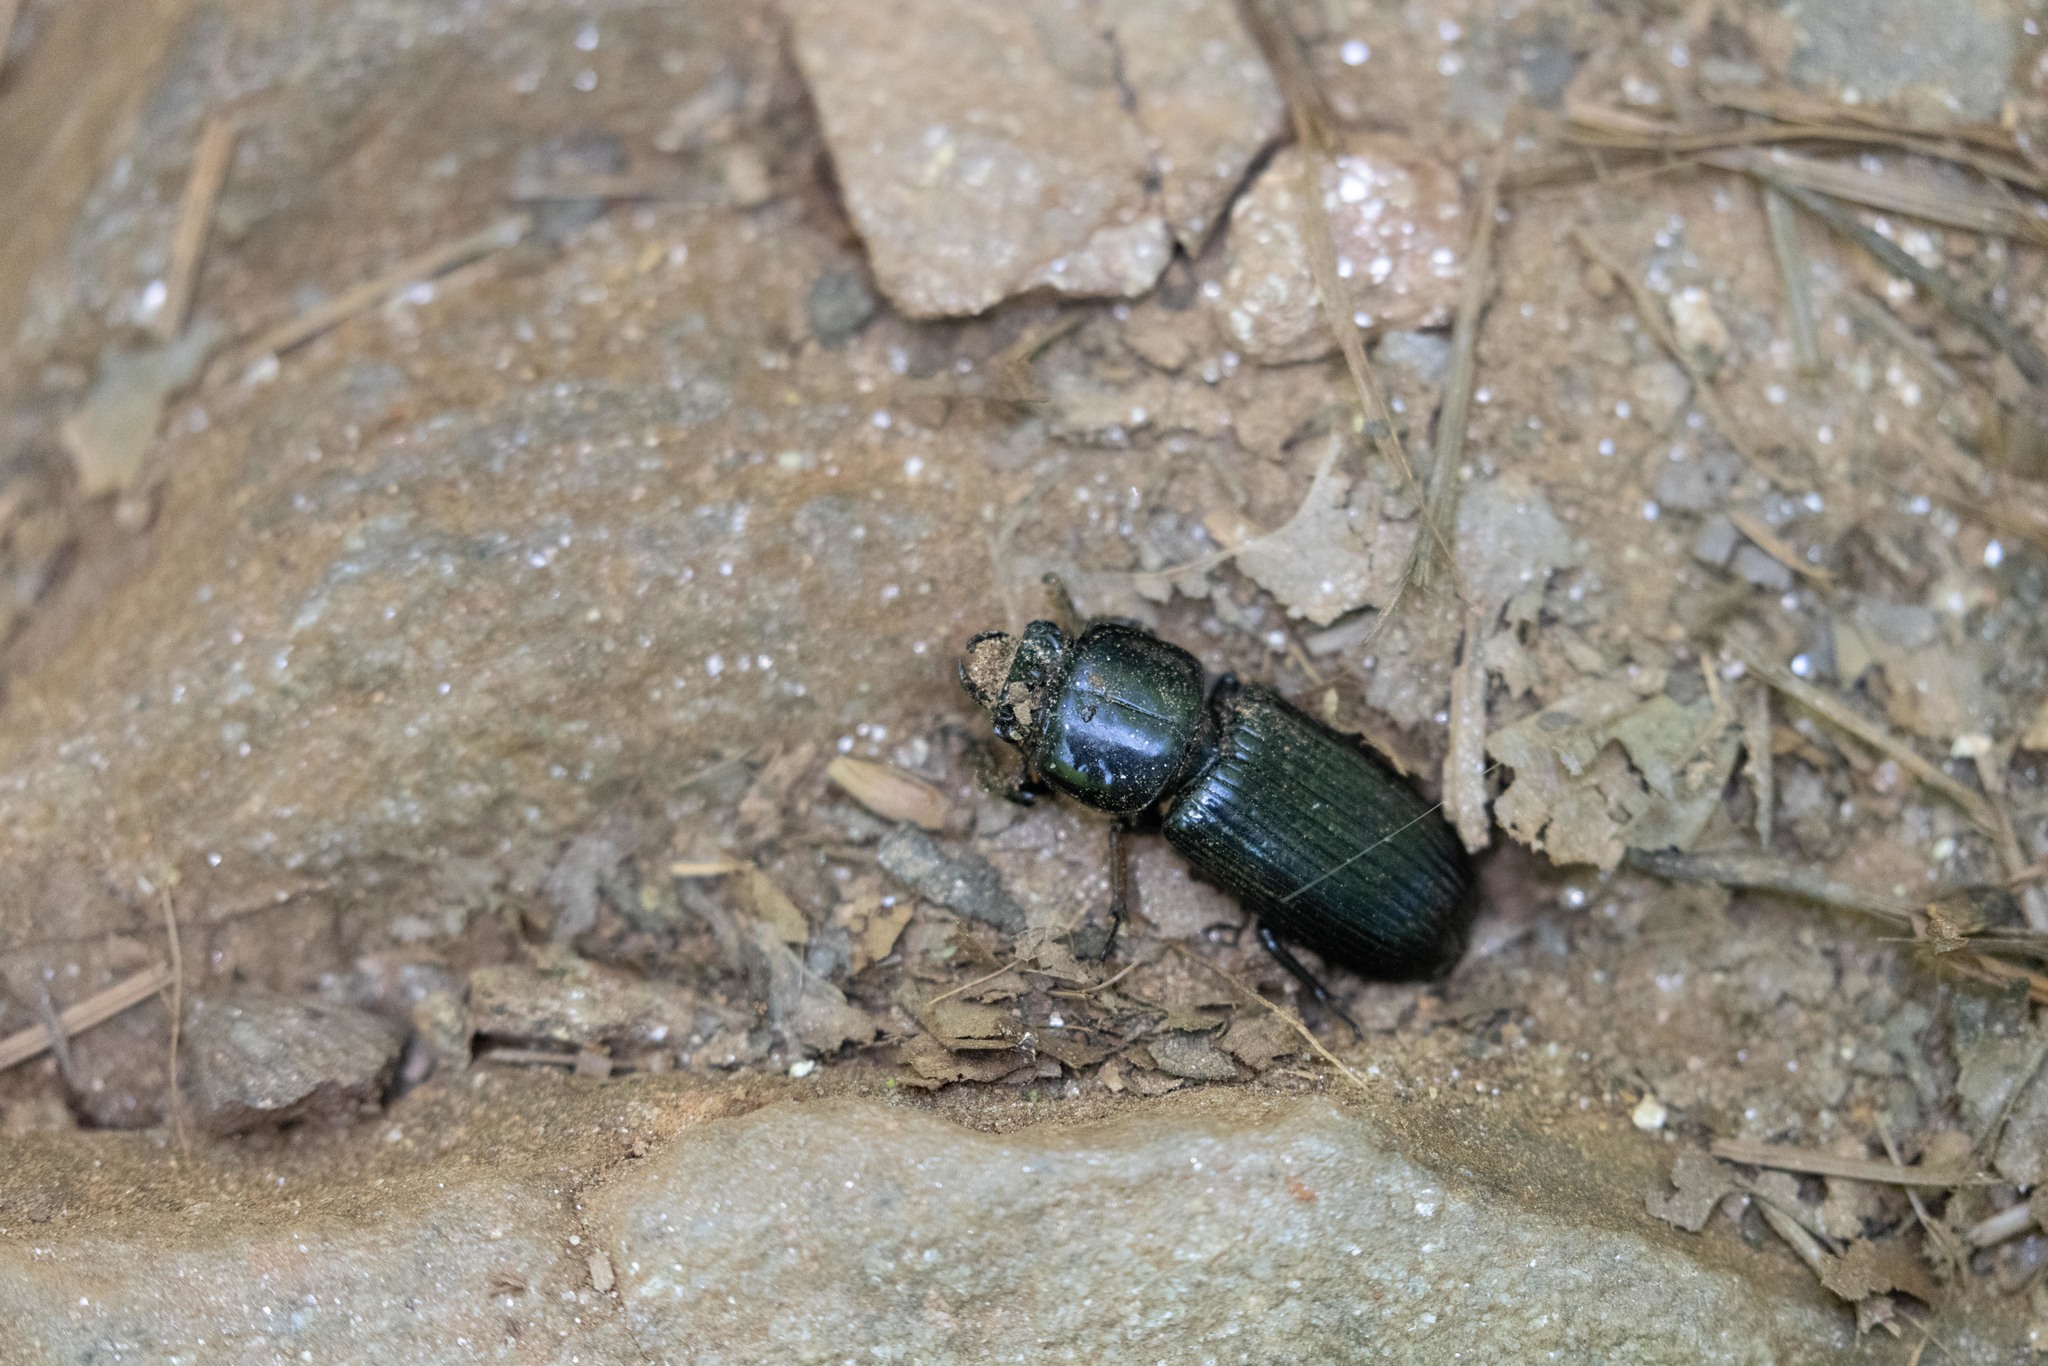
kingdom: Animalia
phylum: Arthropoda
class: Insecta
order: Coleoptera
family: Passalidae
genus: Odontotaenius
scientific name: Odontotaenius disjunctus
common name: Patent leather beetle
